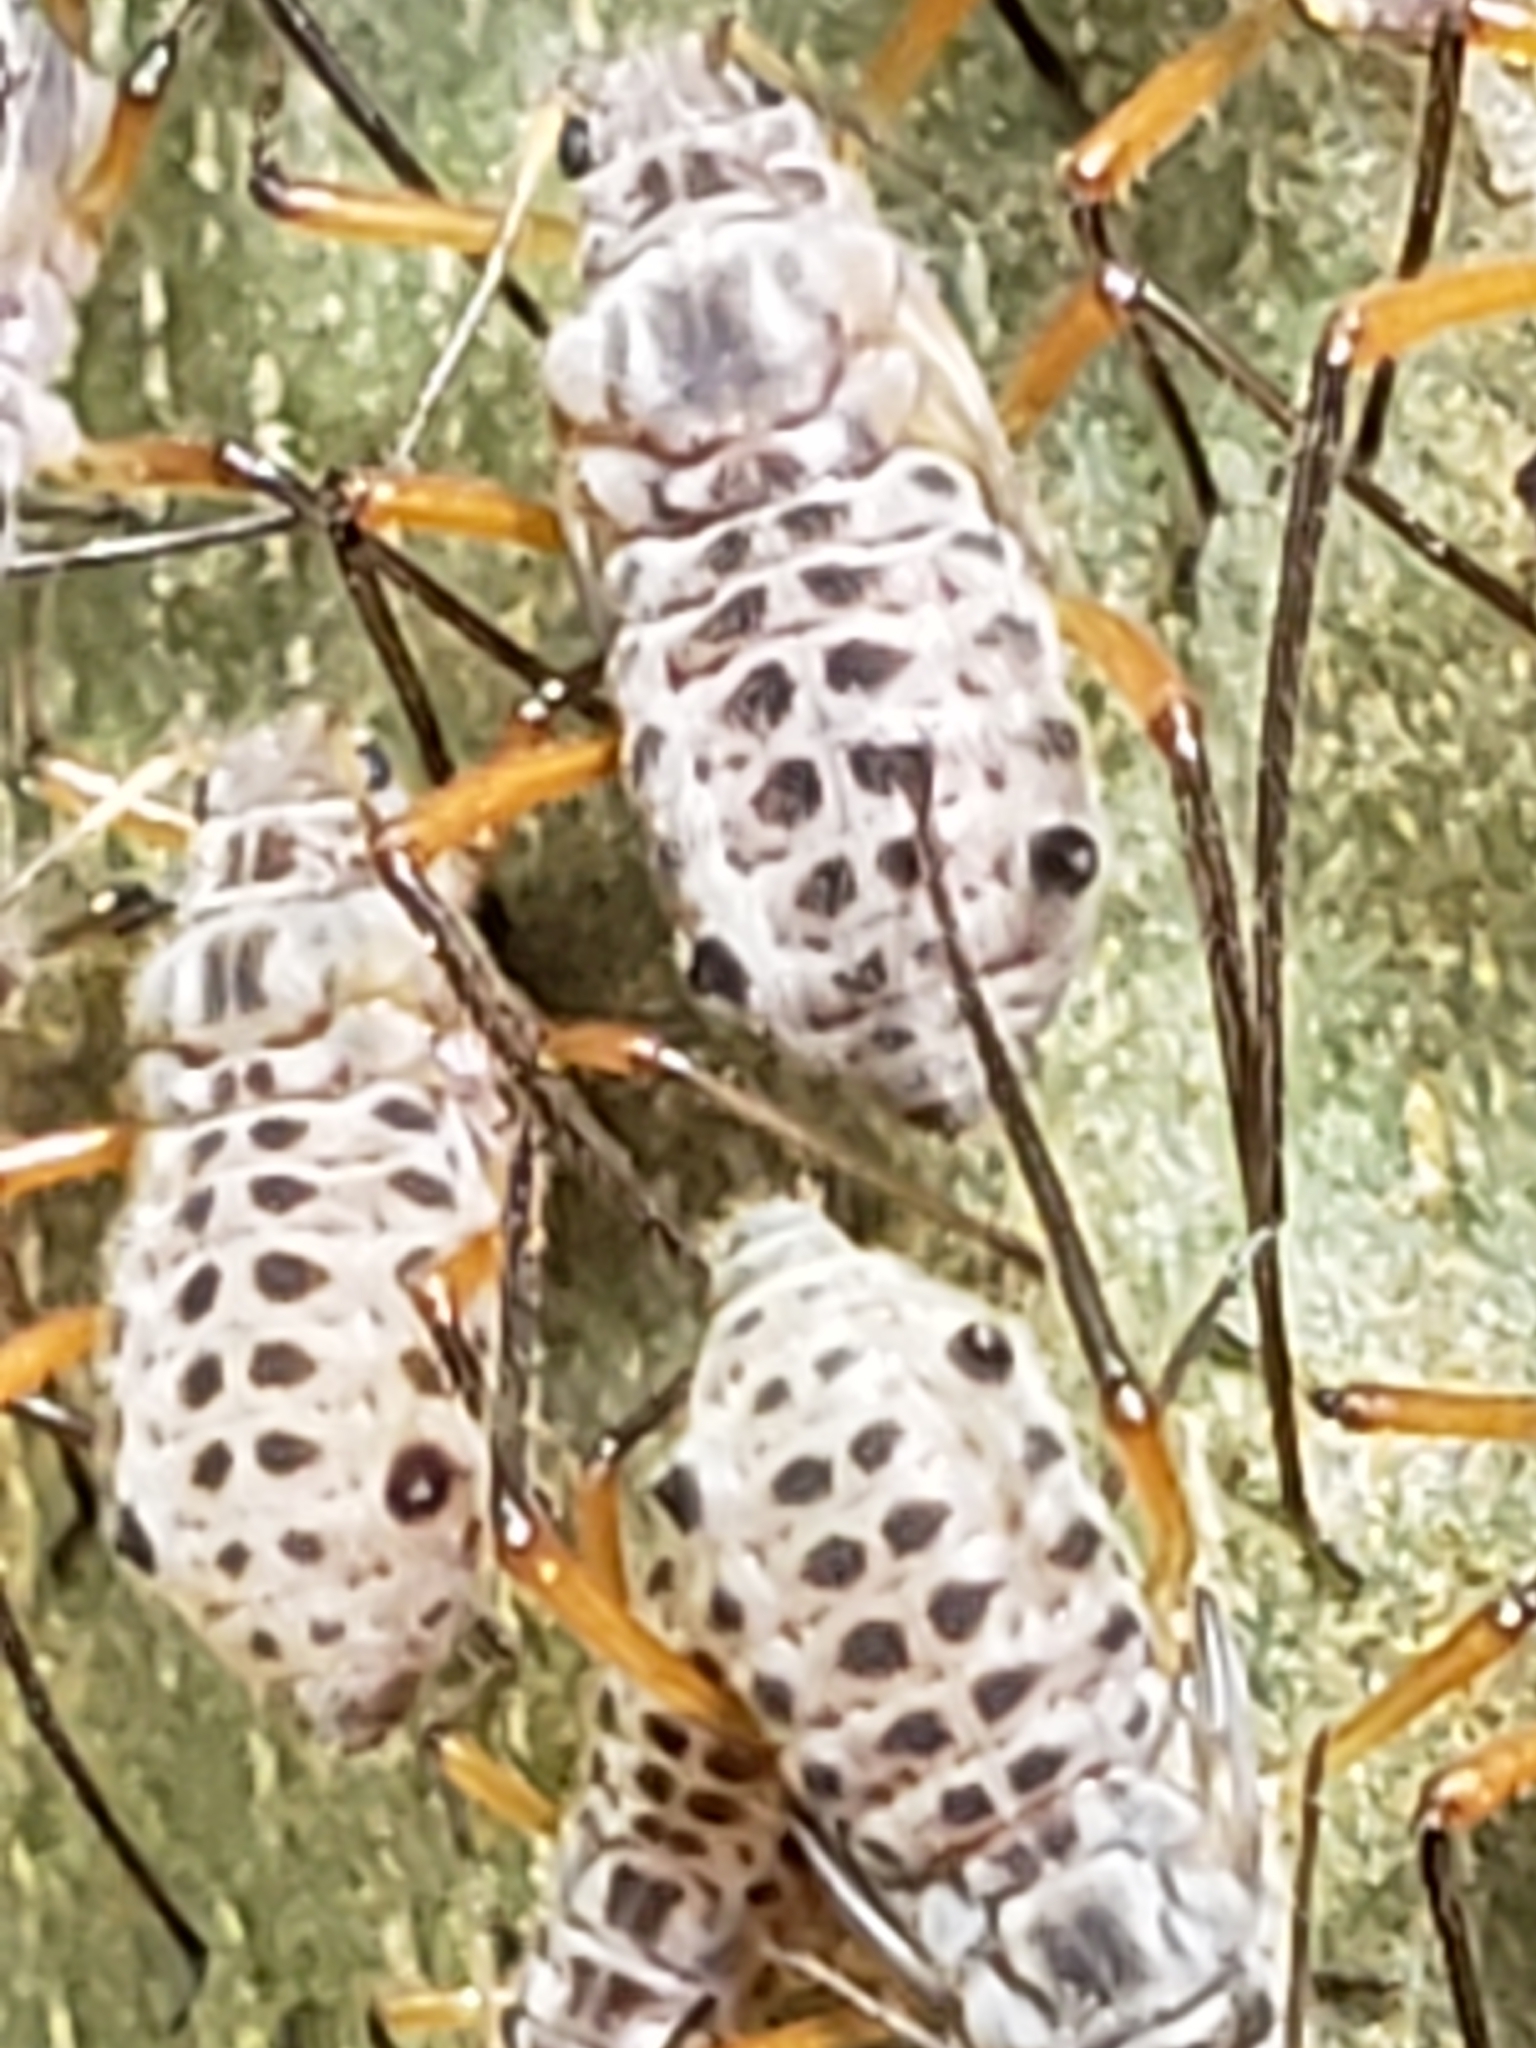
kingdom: Animalia
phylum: Arthropoda
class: Insecta
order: Hemiptera
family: Aphididae
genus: Longistigma
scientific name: Longistigma caryae
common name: Giant bark aphid
